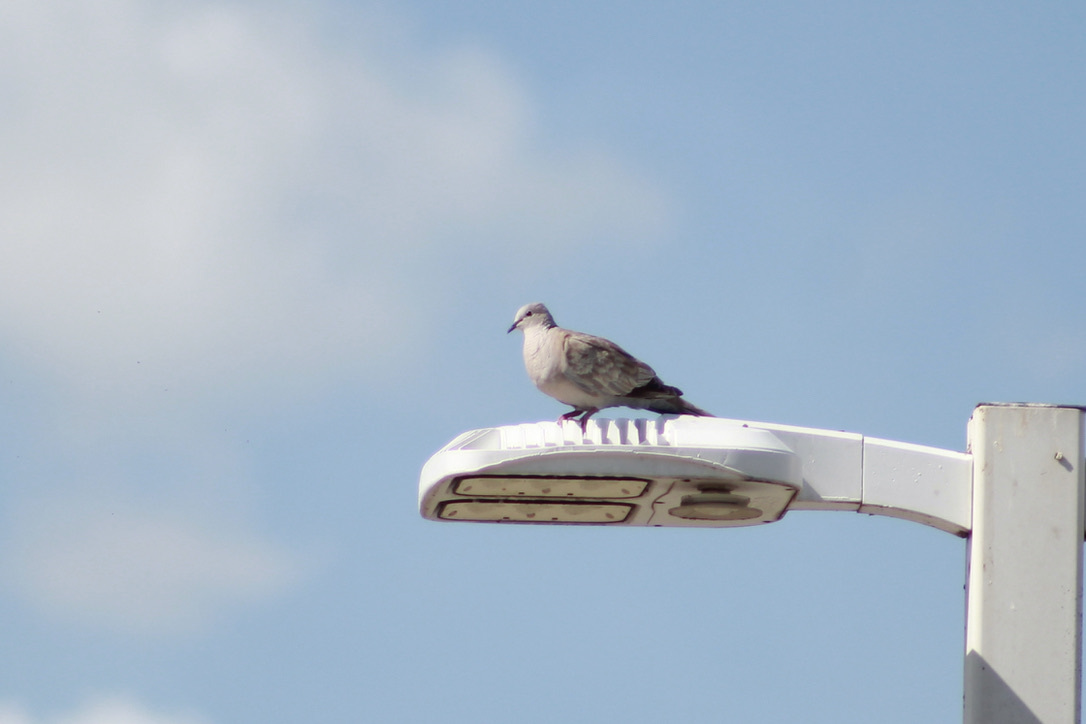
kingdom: Animalia
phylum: Chordata
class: Aves
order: Columbiformes
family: Columbidae
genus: Streptopelia
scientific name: Streptopelia decaocto
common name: Eurasian collared dove
